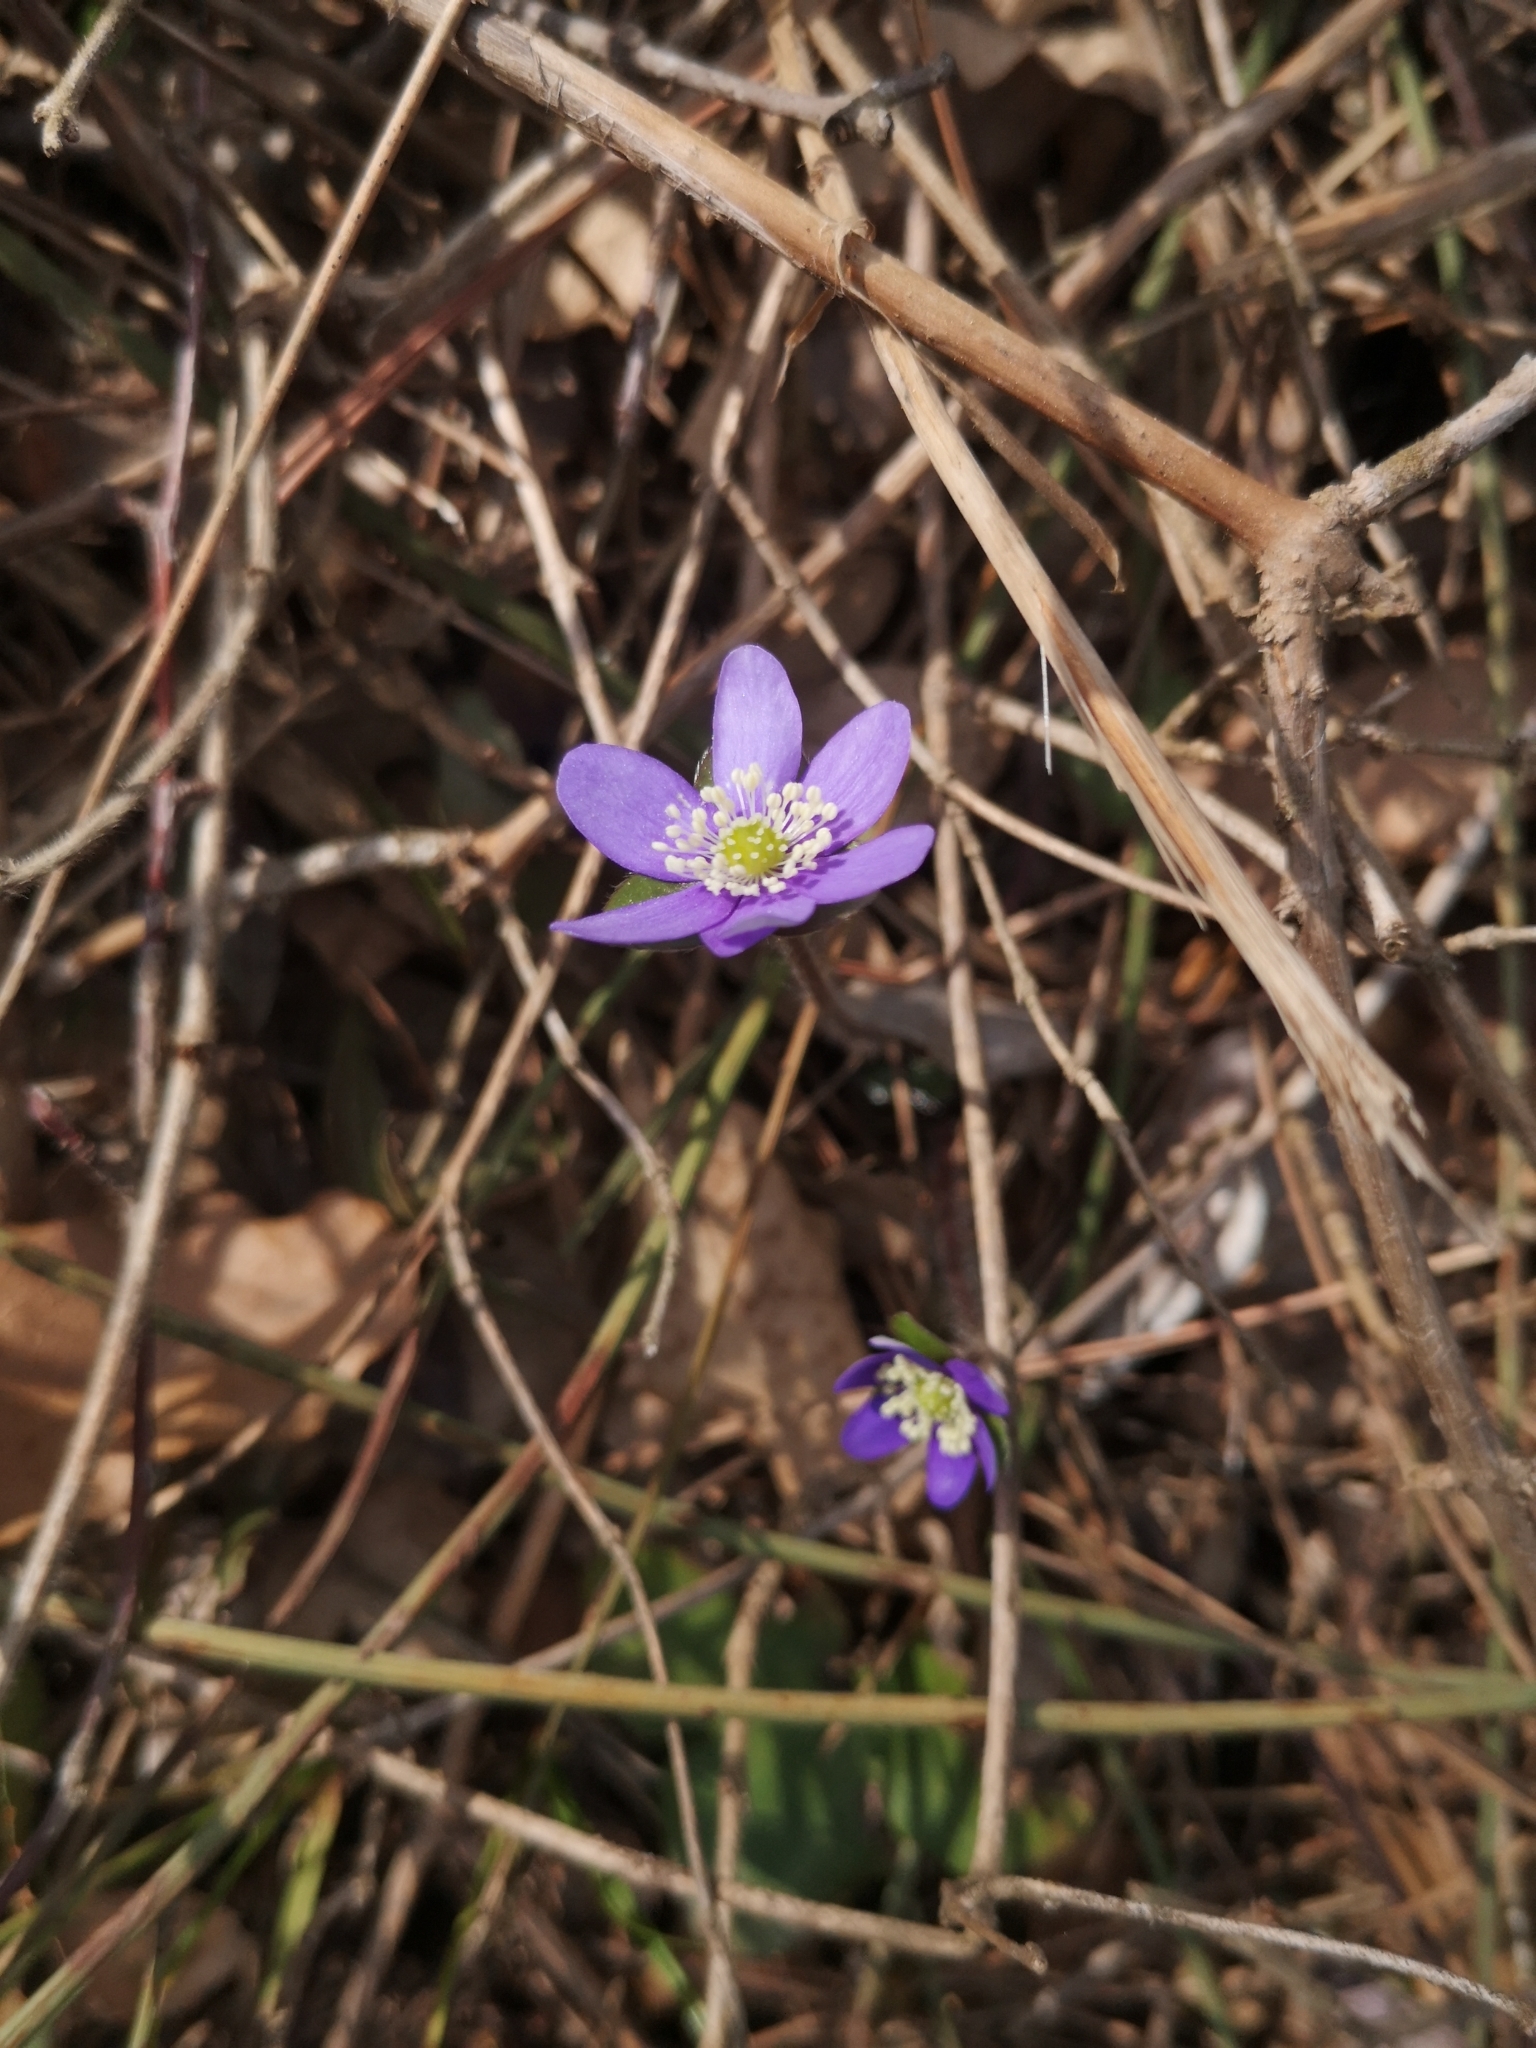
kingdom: Plantae
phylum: Tracheophyta
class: Magnoliopsida
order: Ranunculales
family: Ranunculaceae
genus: Hepatica
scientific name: Hepatica nobilis
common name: Liverleaf
